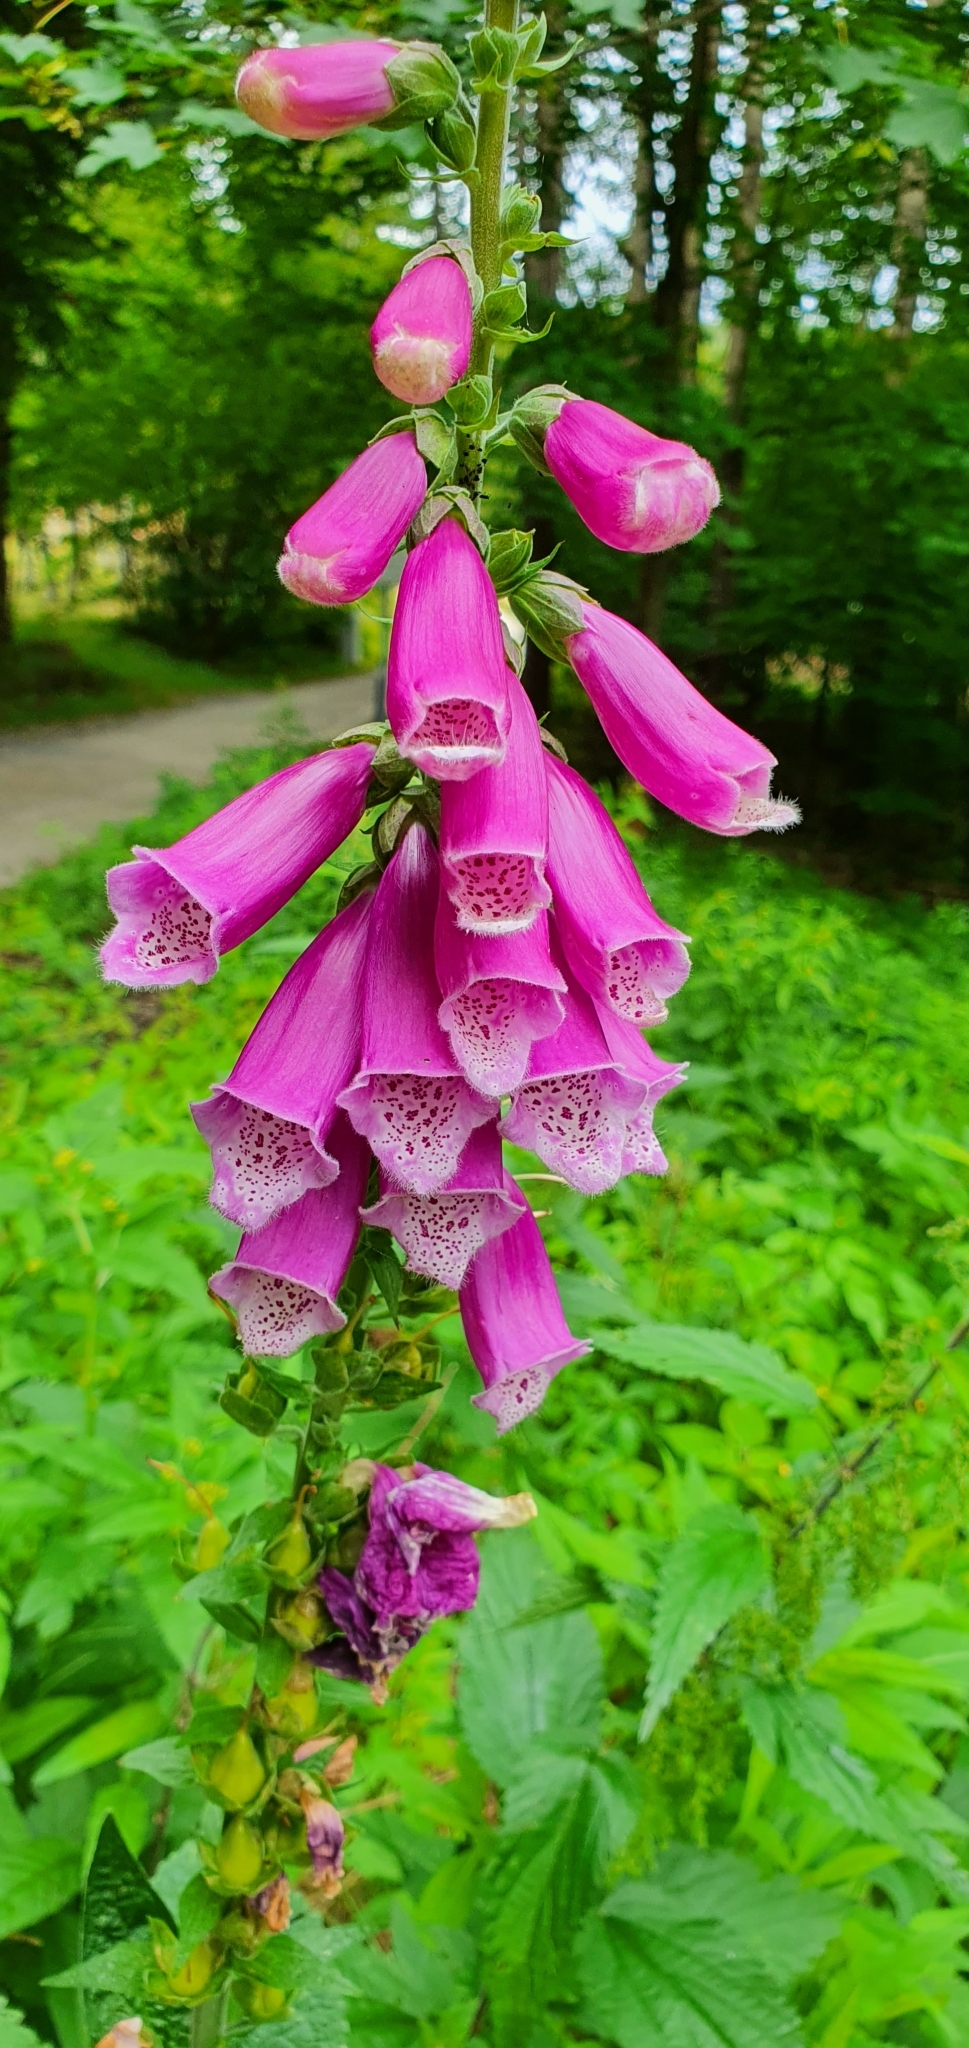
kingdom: Plantae
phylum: Tracheophyta
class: Magnoliopsida
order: Lamiales
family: Plantaginaceae
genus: Digitalis
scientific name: Digitalis purpurea
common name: Foxglove
